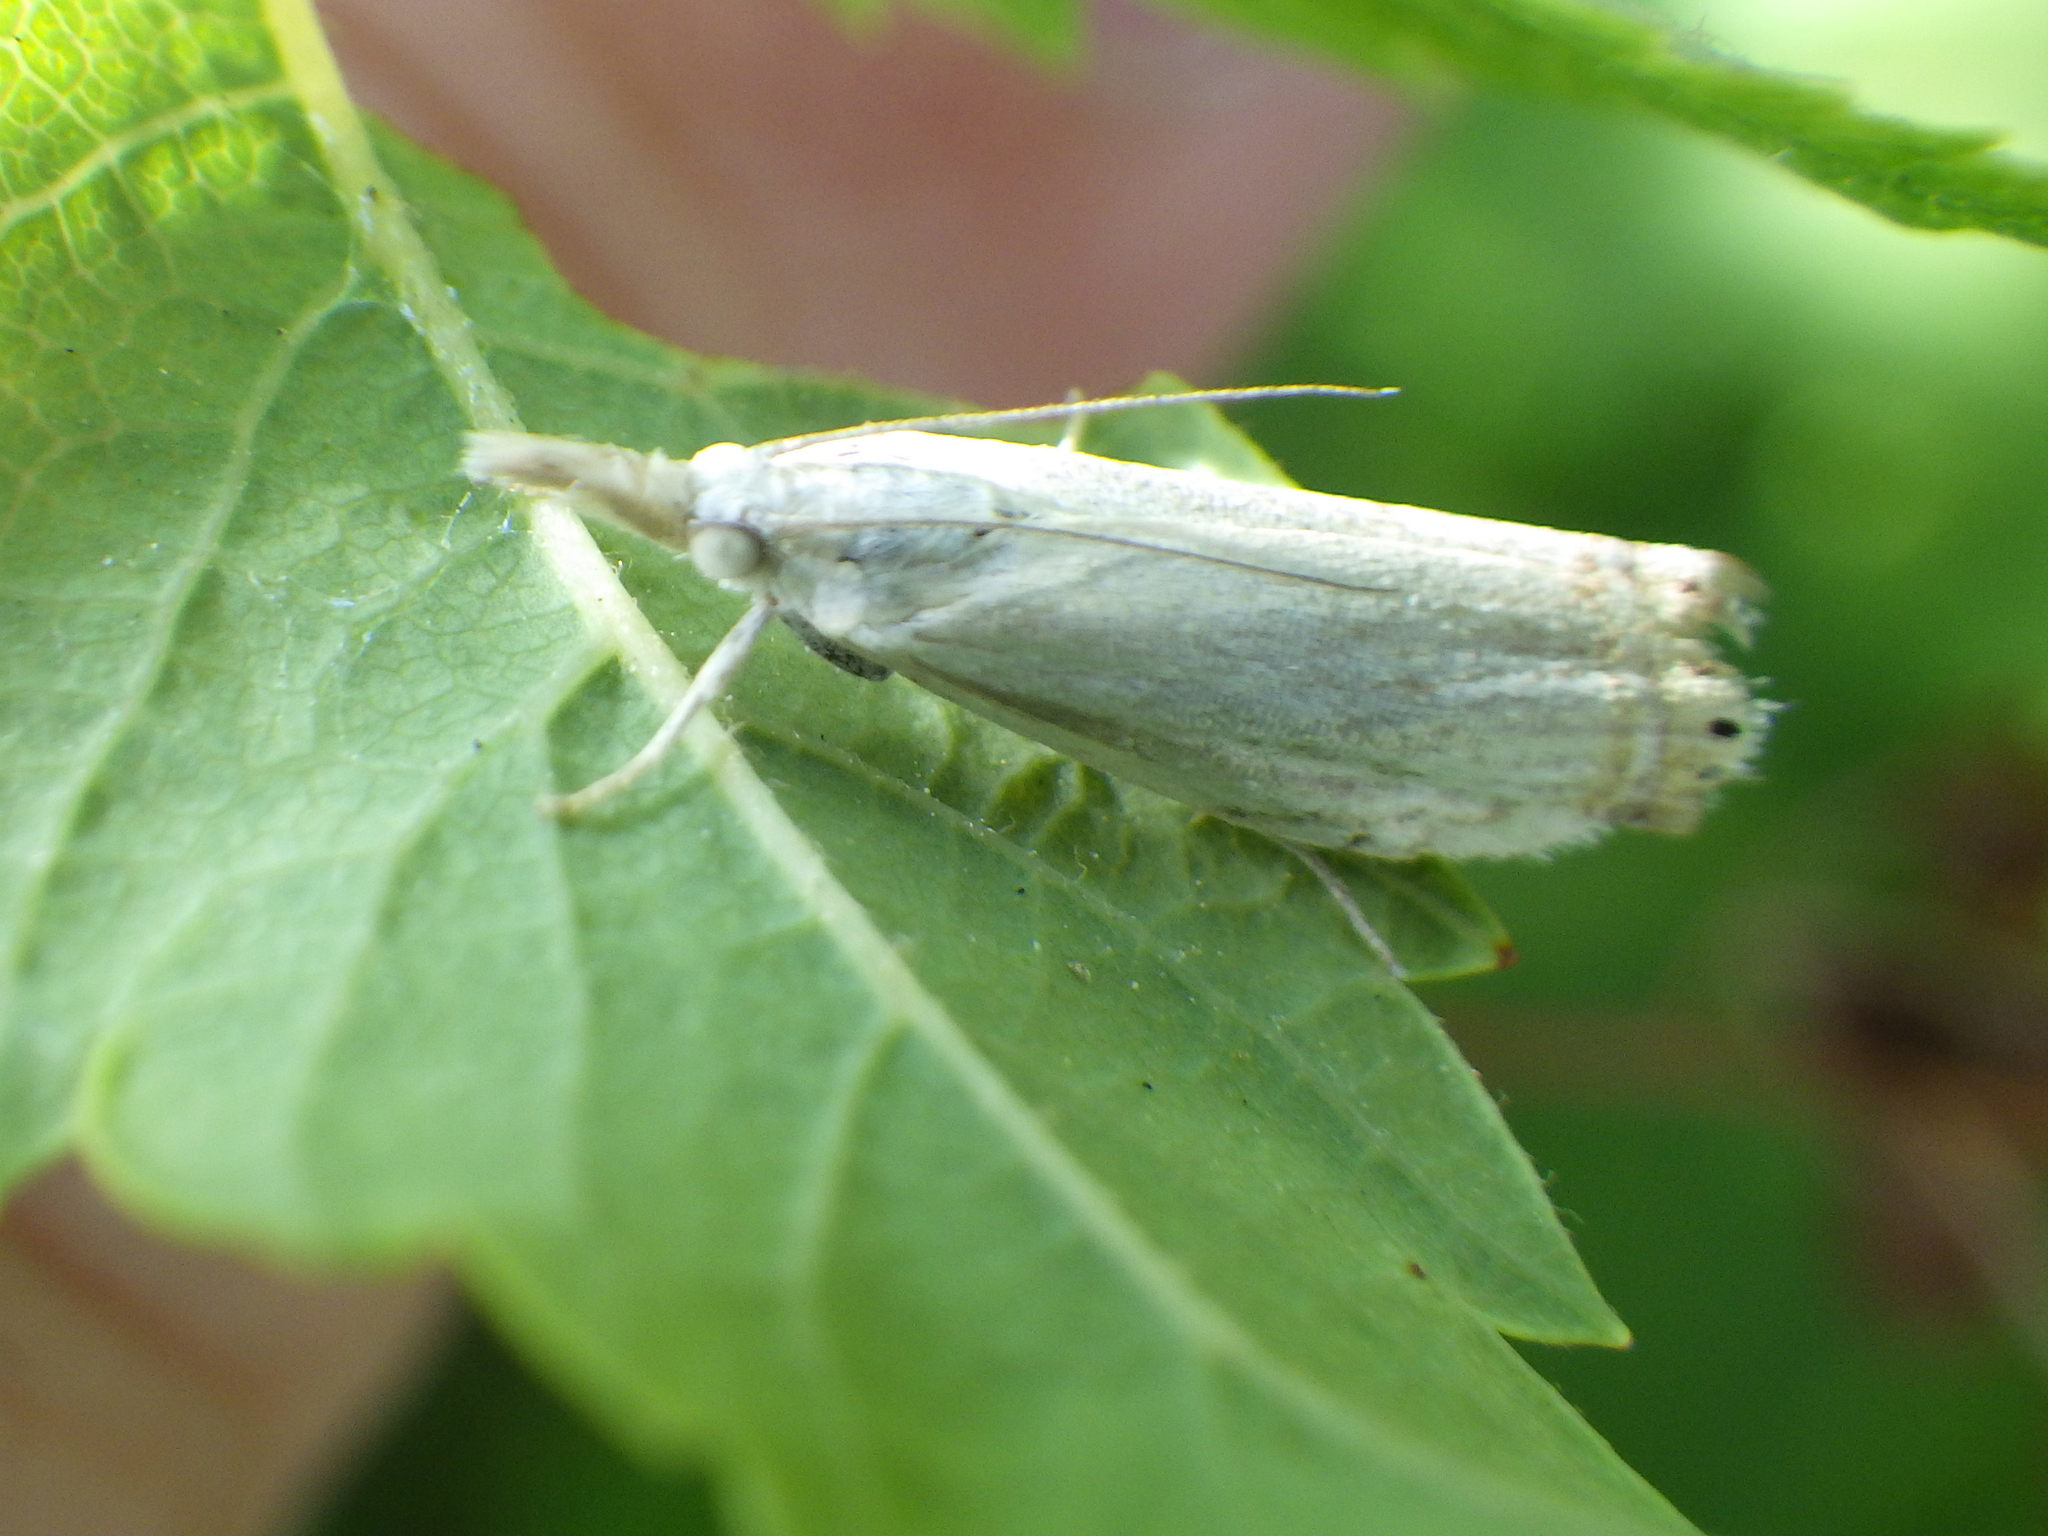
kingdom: Animalia
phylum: Arthropoda
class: Insecta
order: Lepidoptera
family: Crambidae
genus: Crambus
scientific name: Crambus albellus
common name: Small white grass-veneer
